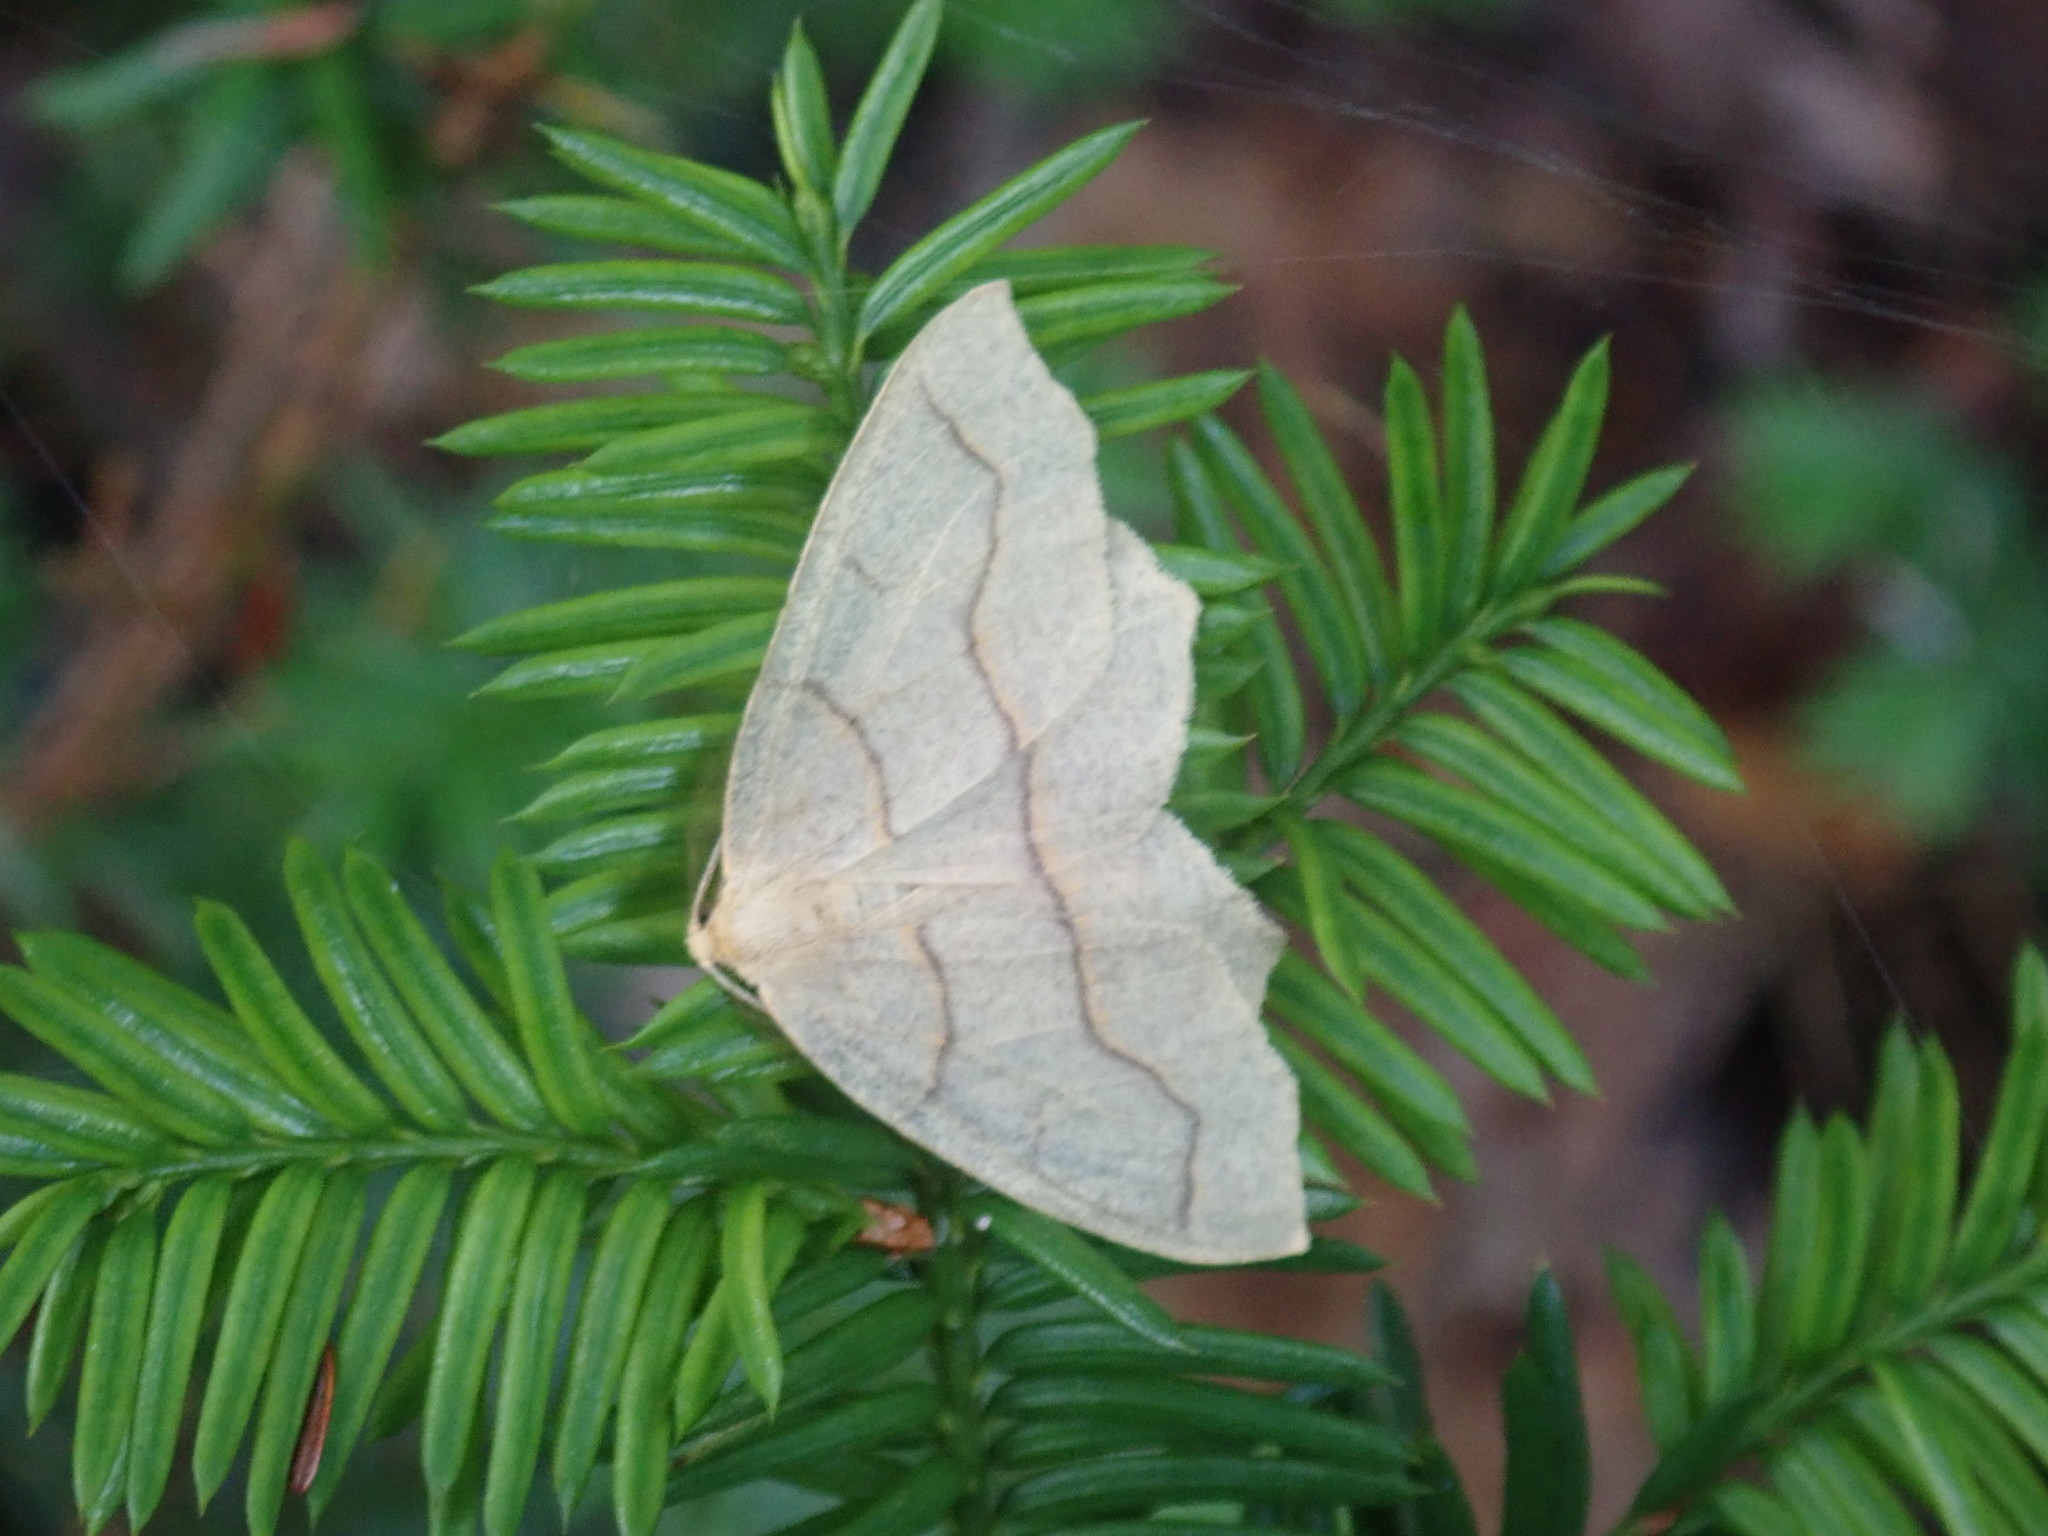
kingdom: Animalia
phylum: Arthropoda
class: Insecta
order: Lepidoptera
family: Geometridae
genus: Lambdina
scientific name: Lambdina fiscellaria
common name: Hemlock looper
